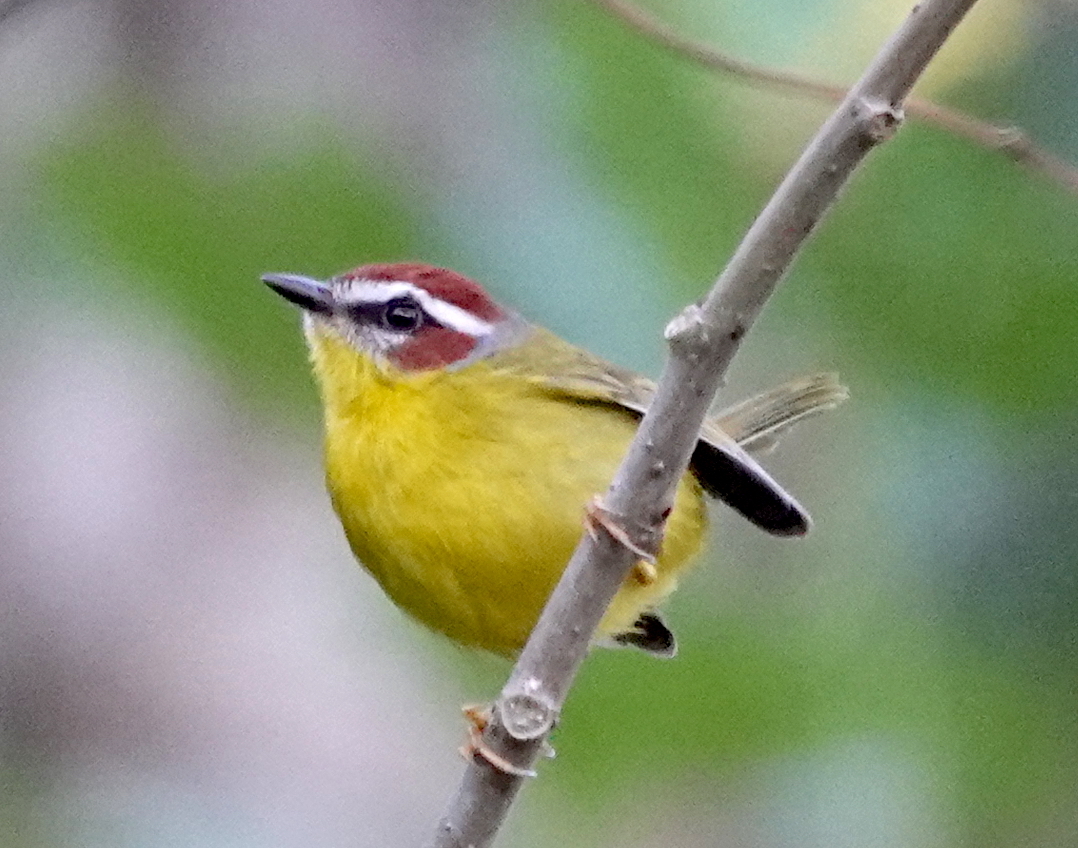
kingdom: Animalia
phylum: Chordata
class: Aves
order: Passeriformes
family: Parulidae
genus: Basileuterus
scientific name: Basileuterus rufifrons
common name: Rufous-capped warbler
